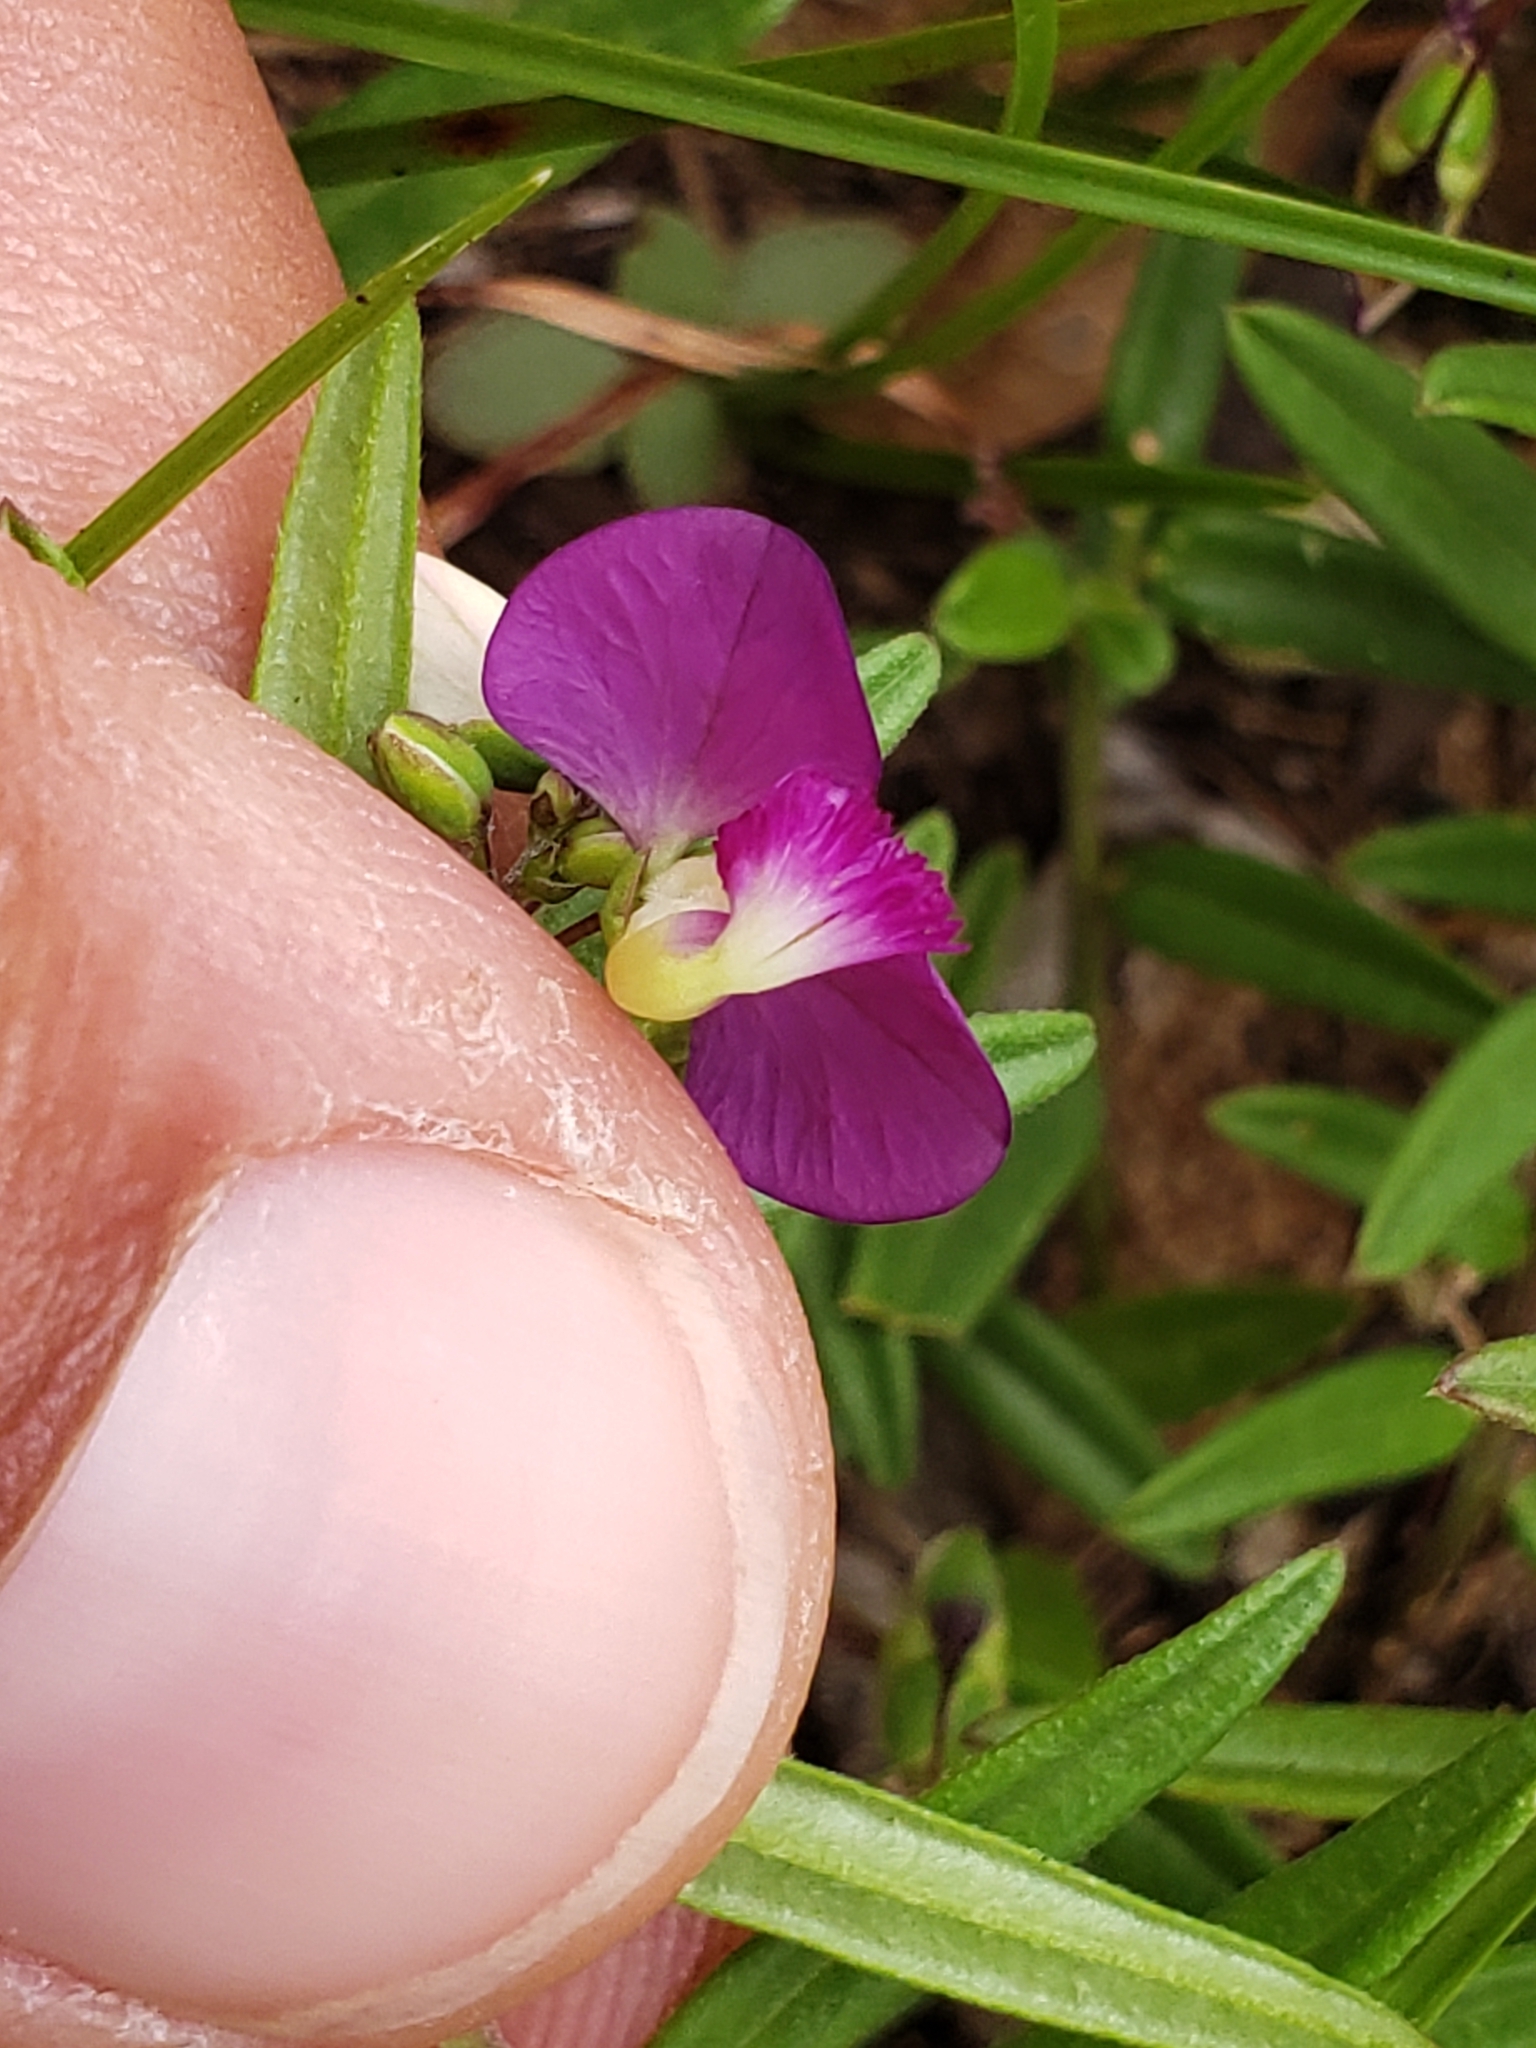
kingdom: Plantae
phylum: Tracheophyta
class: Magnoliopsida
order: Fabales
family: Polygalaceae
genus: Polygala
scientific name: Polygala sphenoptera
